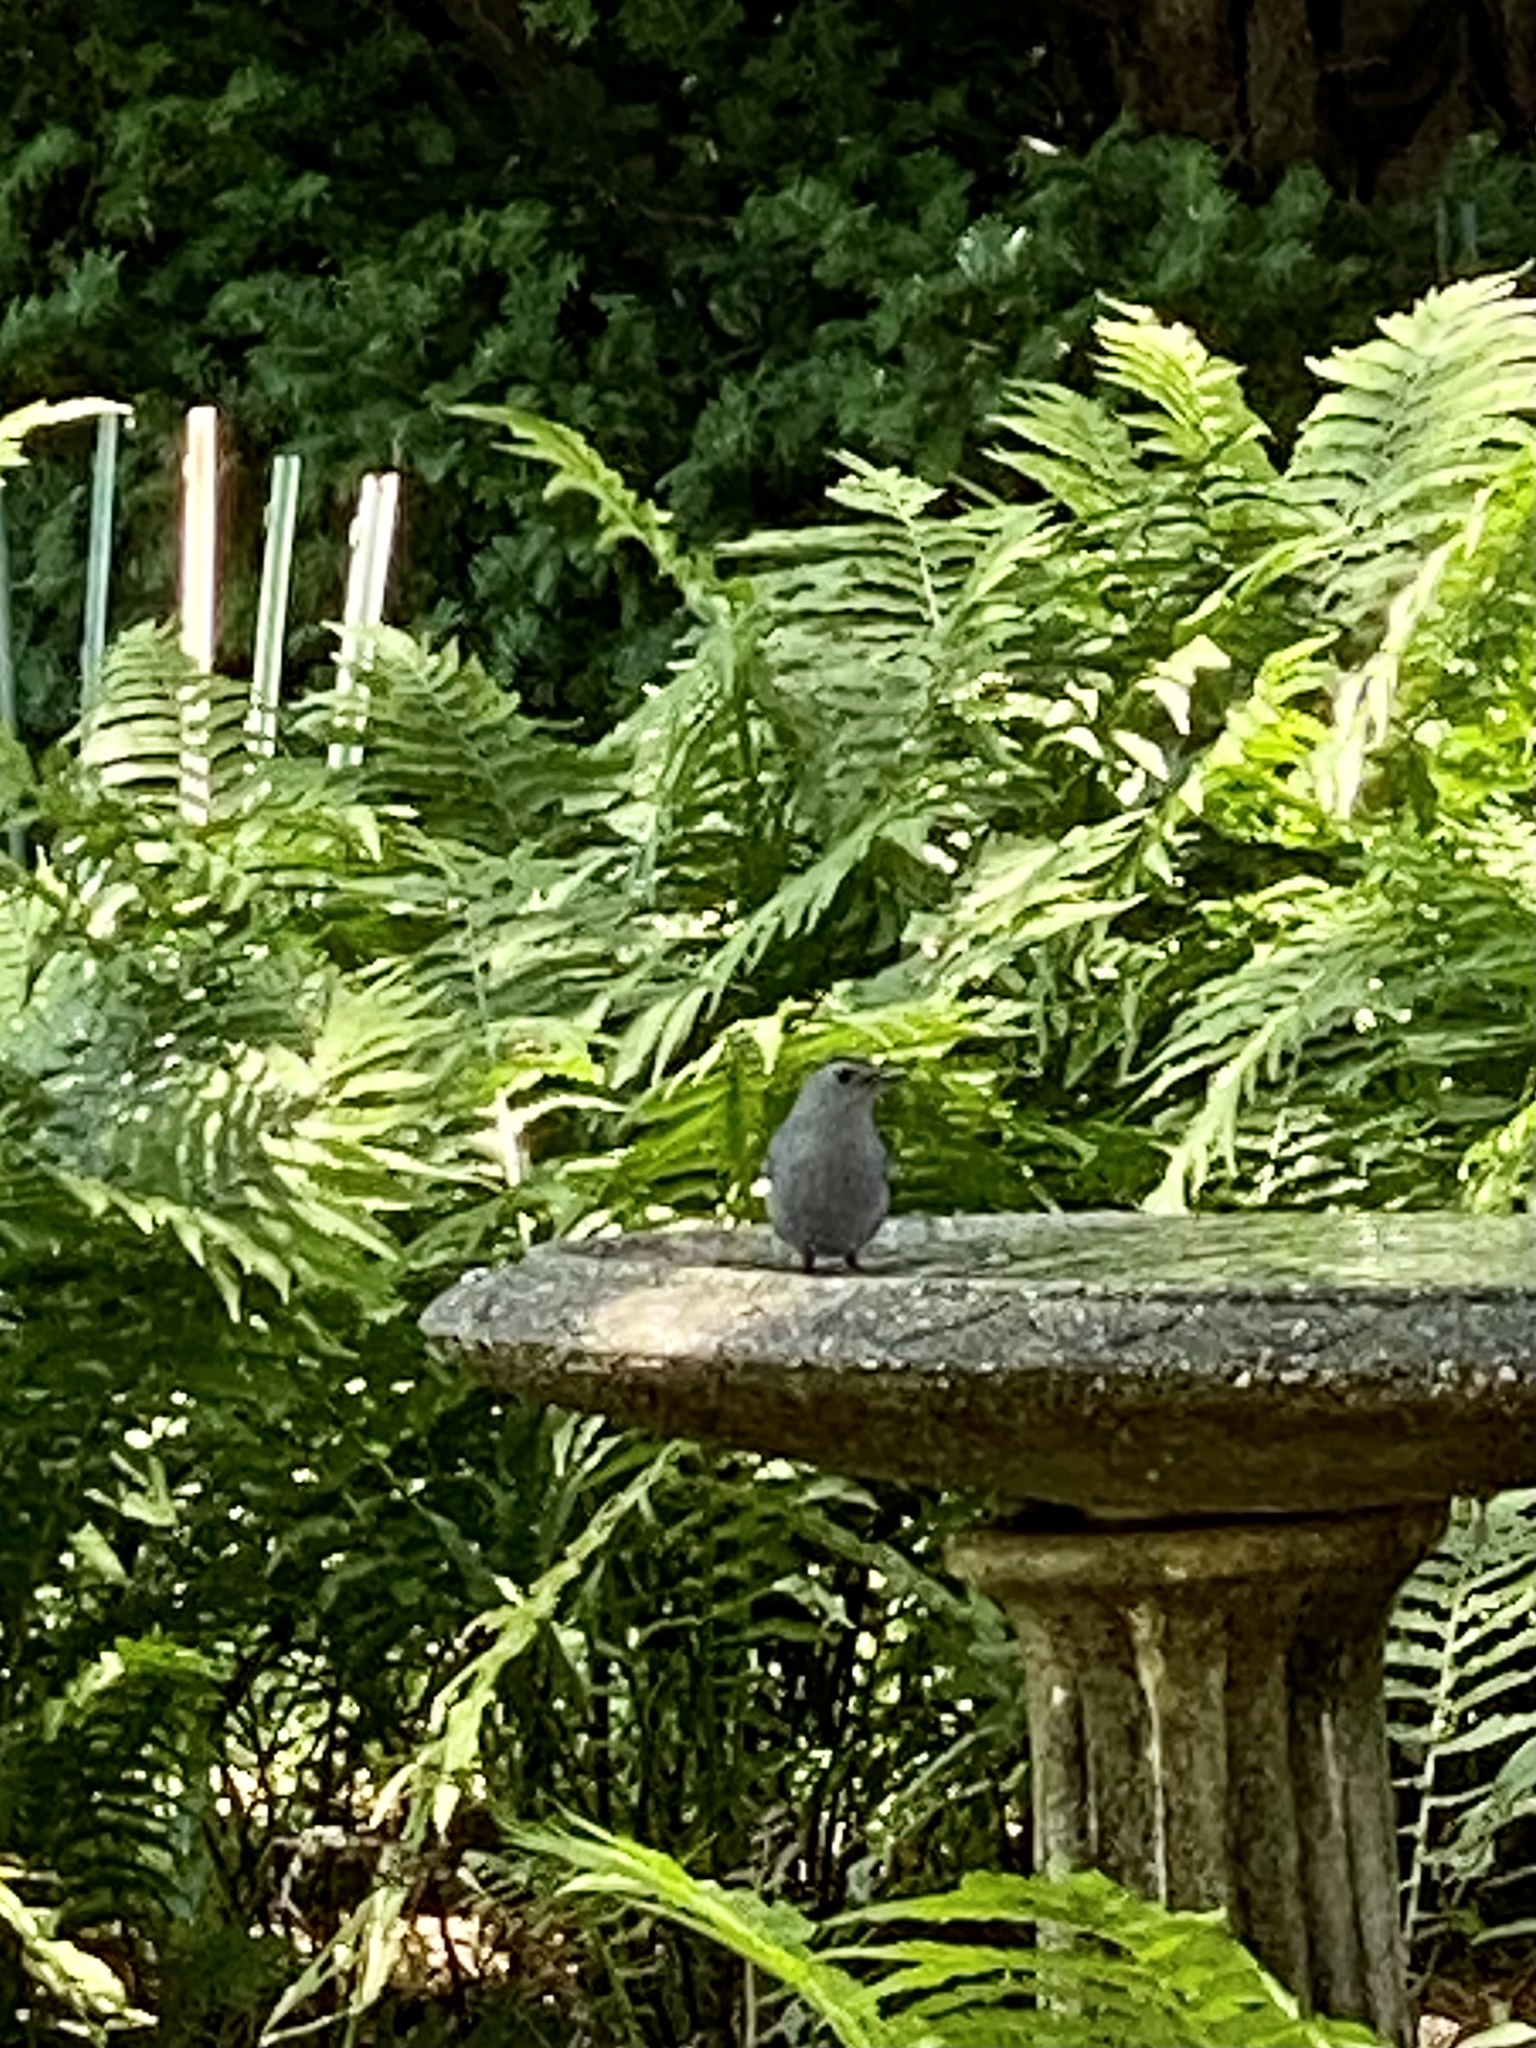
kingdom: Animalia
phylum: Chordata
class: Aves
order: Passeriformes
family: Mimidae
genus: Dumetella
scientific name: Dumetella carolinensis
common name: Gray catbird
